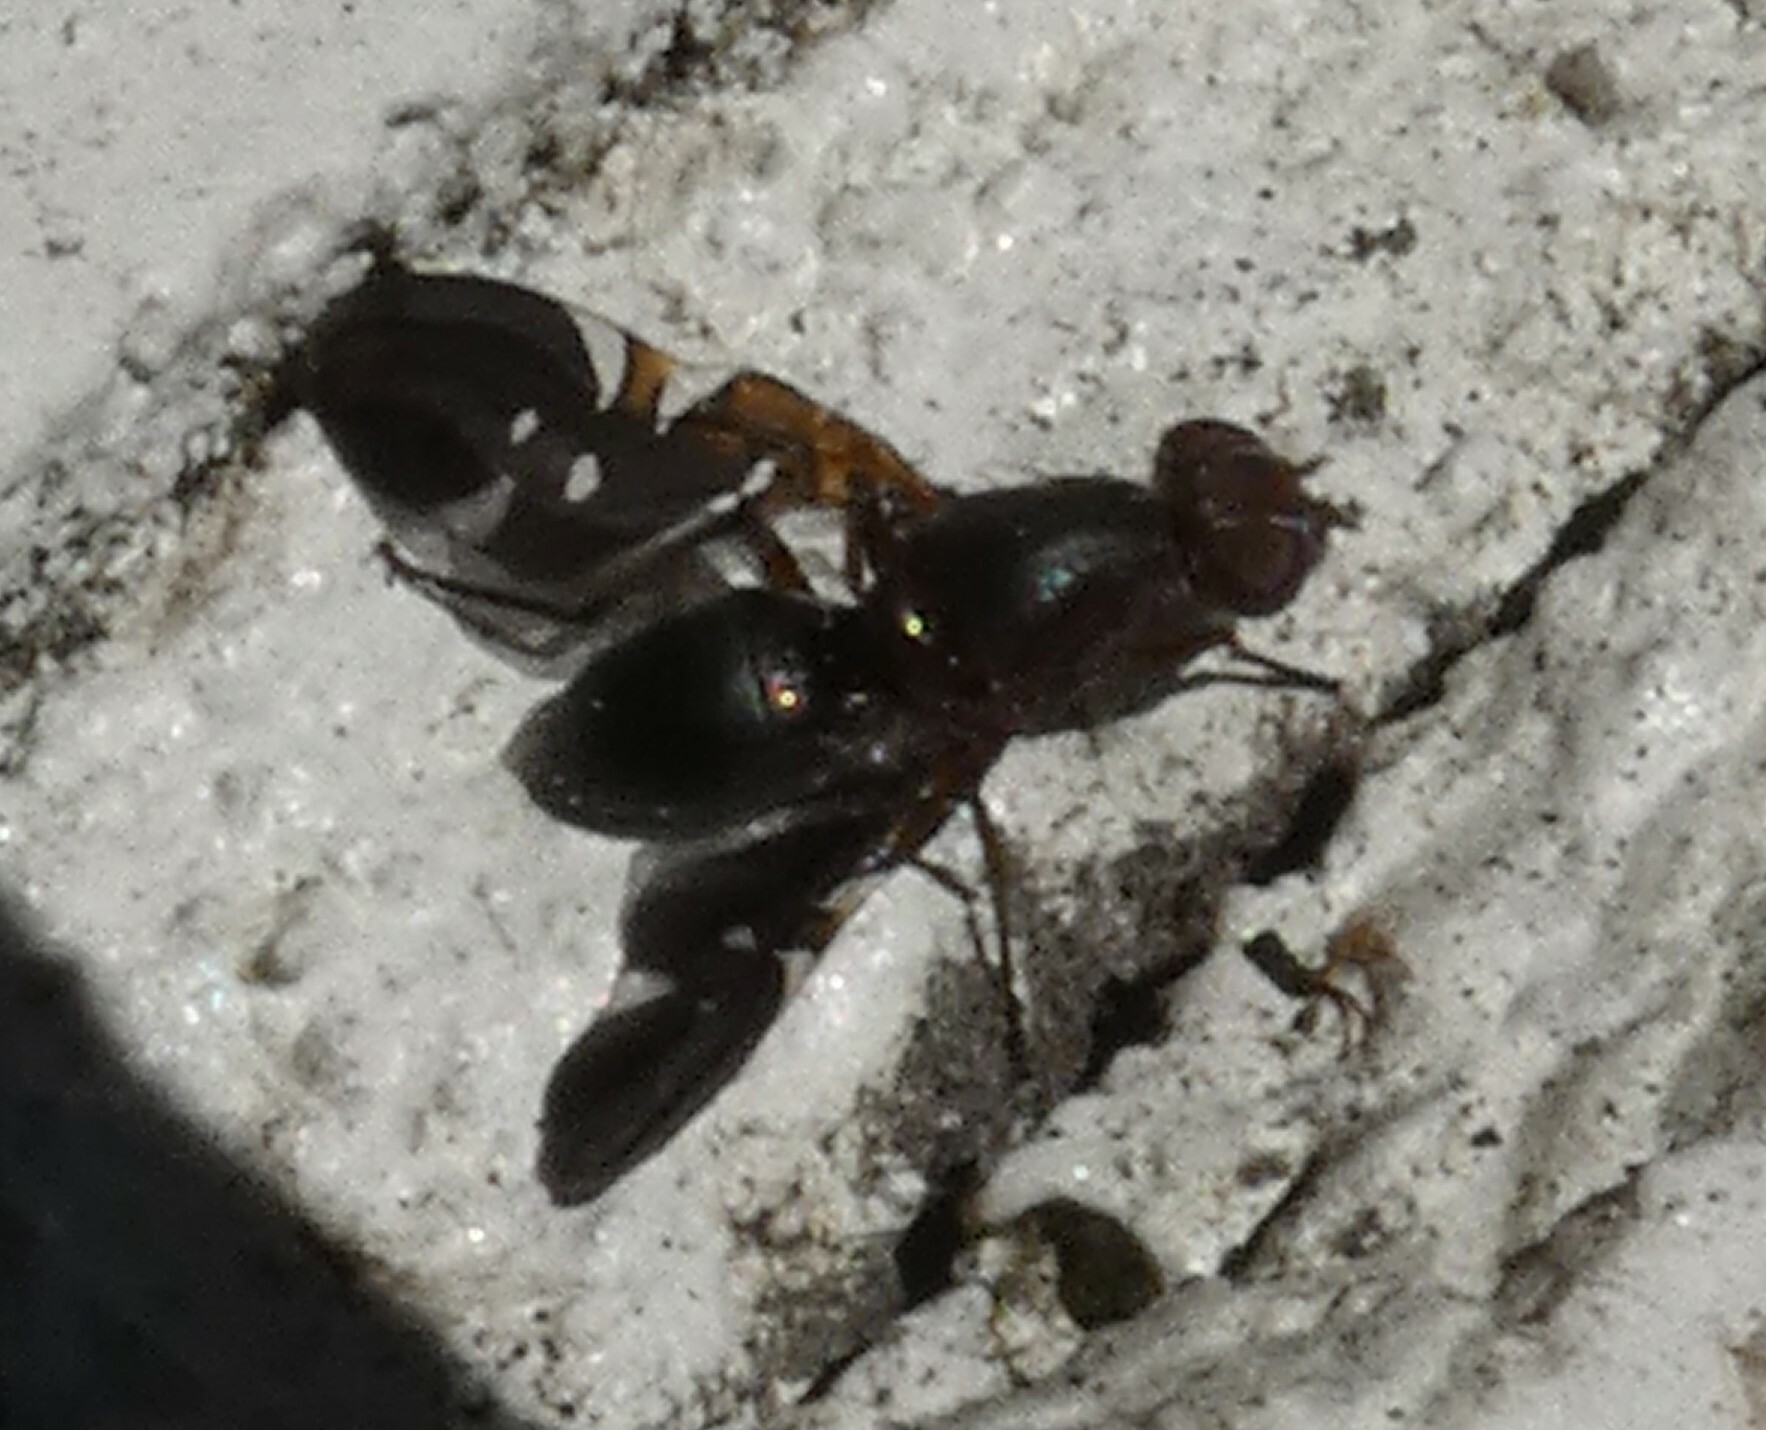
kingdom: Animalia
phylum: Arthropoda
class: Insecta
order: Diptera
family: Ulidiidae
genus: Delphinia
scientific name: Delphinia picta
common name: Common picture-winged fly
